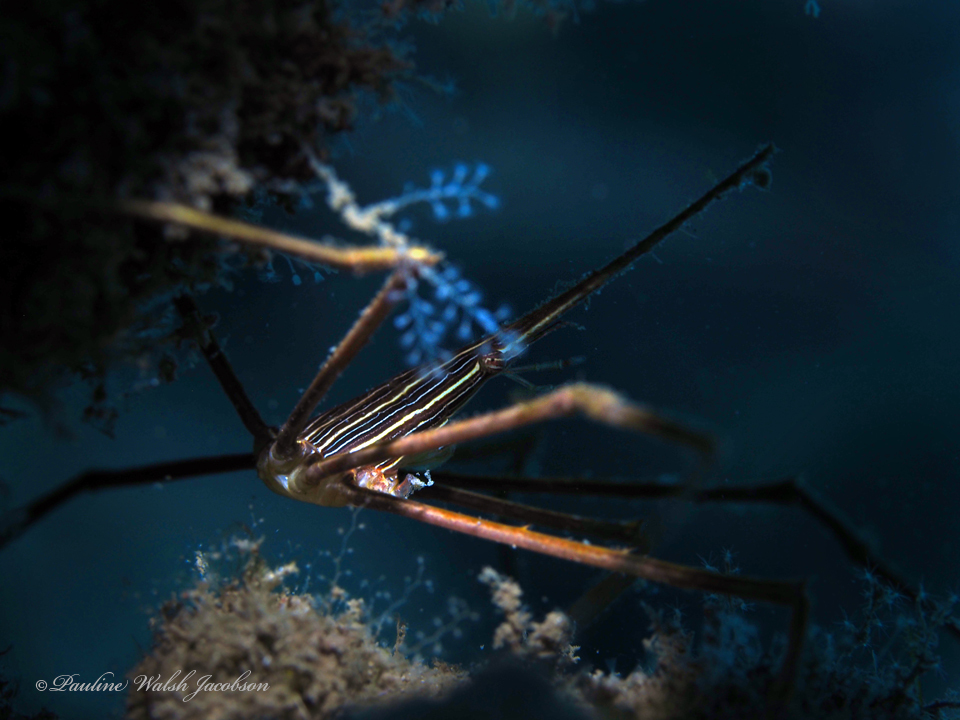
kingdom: Animalia
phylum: Arthropoda
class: Malacostraca
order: Decapoda
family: Inachoididae
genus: Stenorhynchus
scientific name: Stenorhynchus seticornis
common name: Arrow crab
